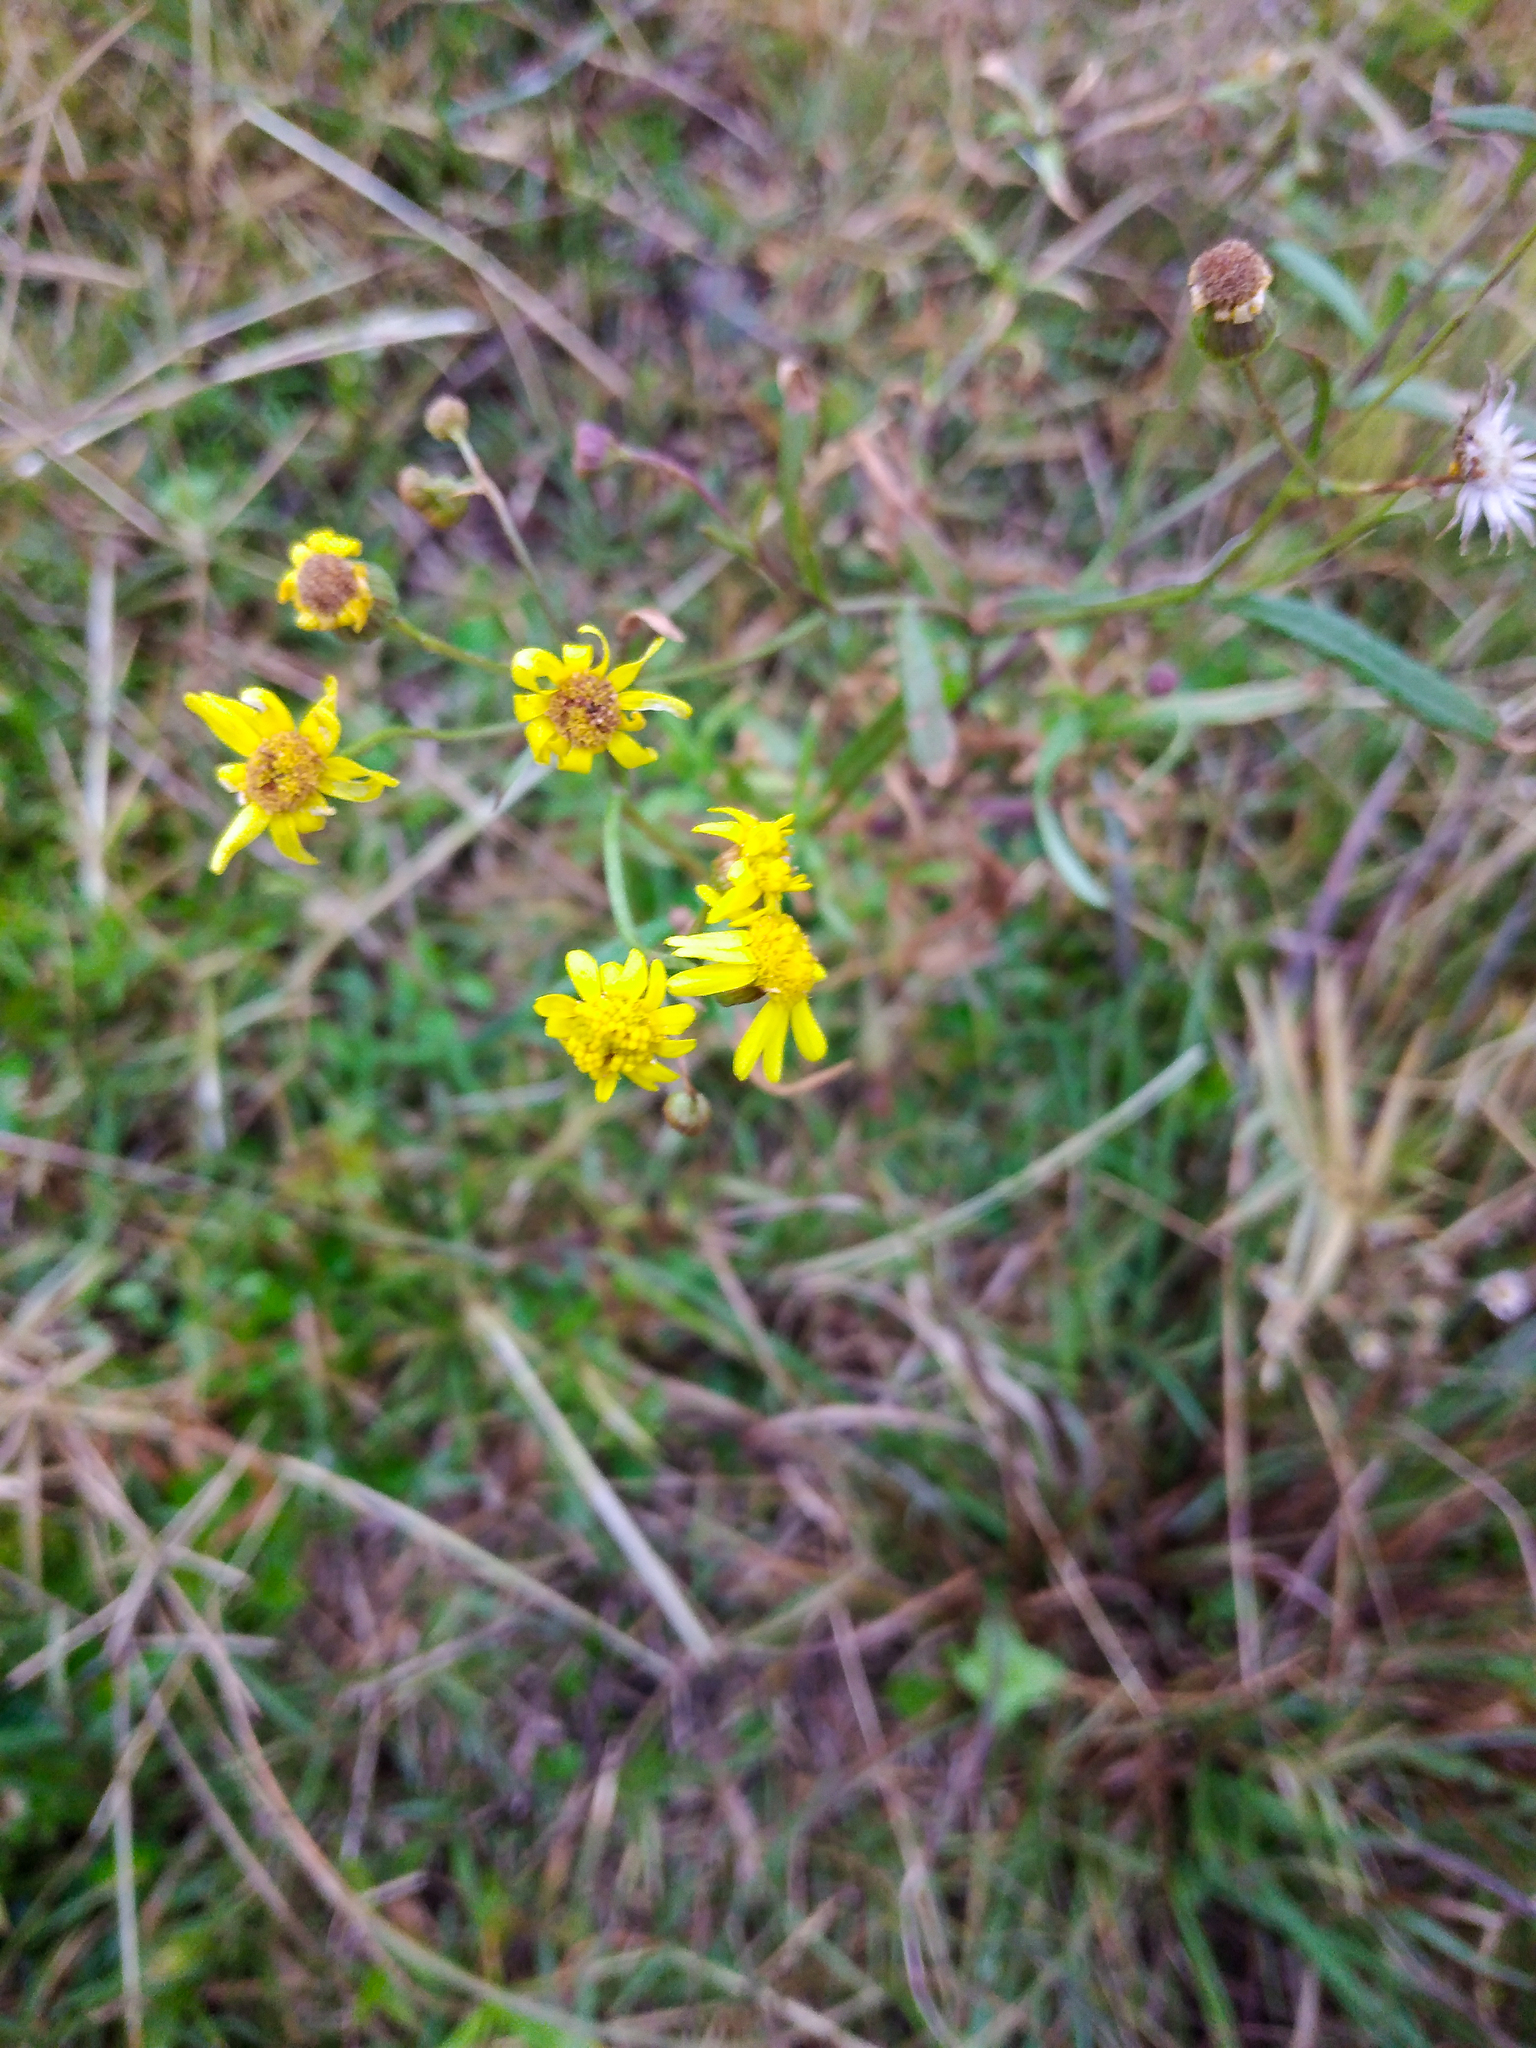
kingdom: Plantae
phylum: Tracheophyta
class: Magnoliopsida
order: Asterales
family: Asteraceae
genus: Senecio
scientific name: Senecio madagascariensis
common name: Madagascar ragwort
